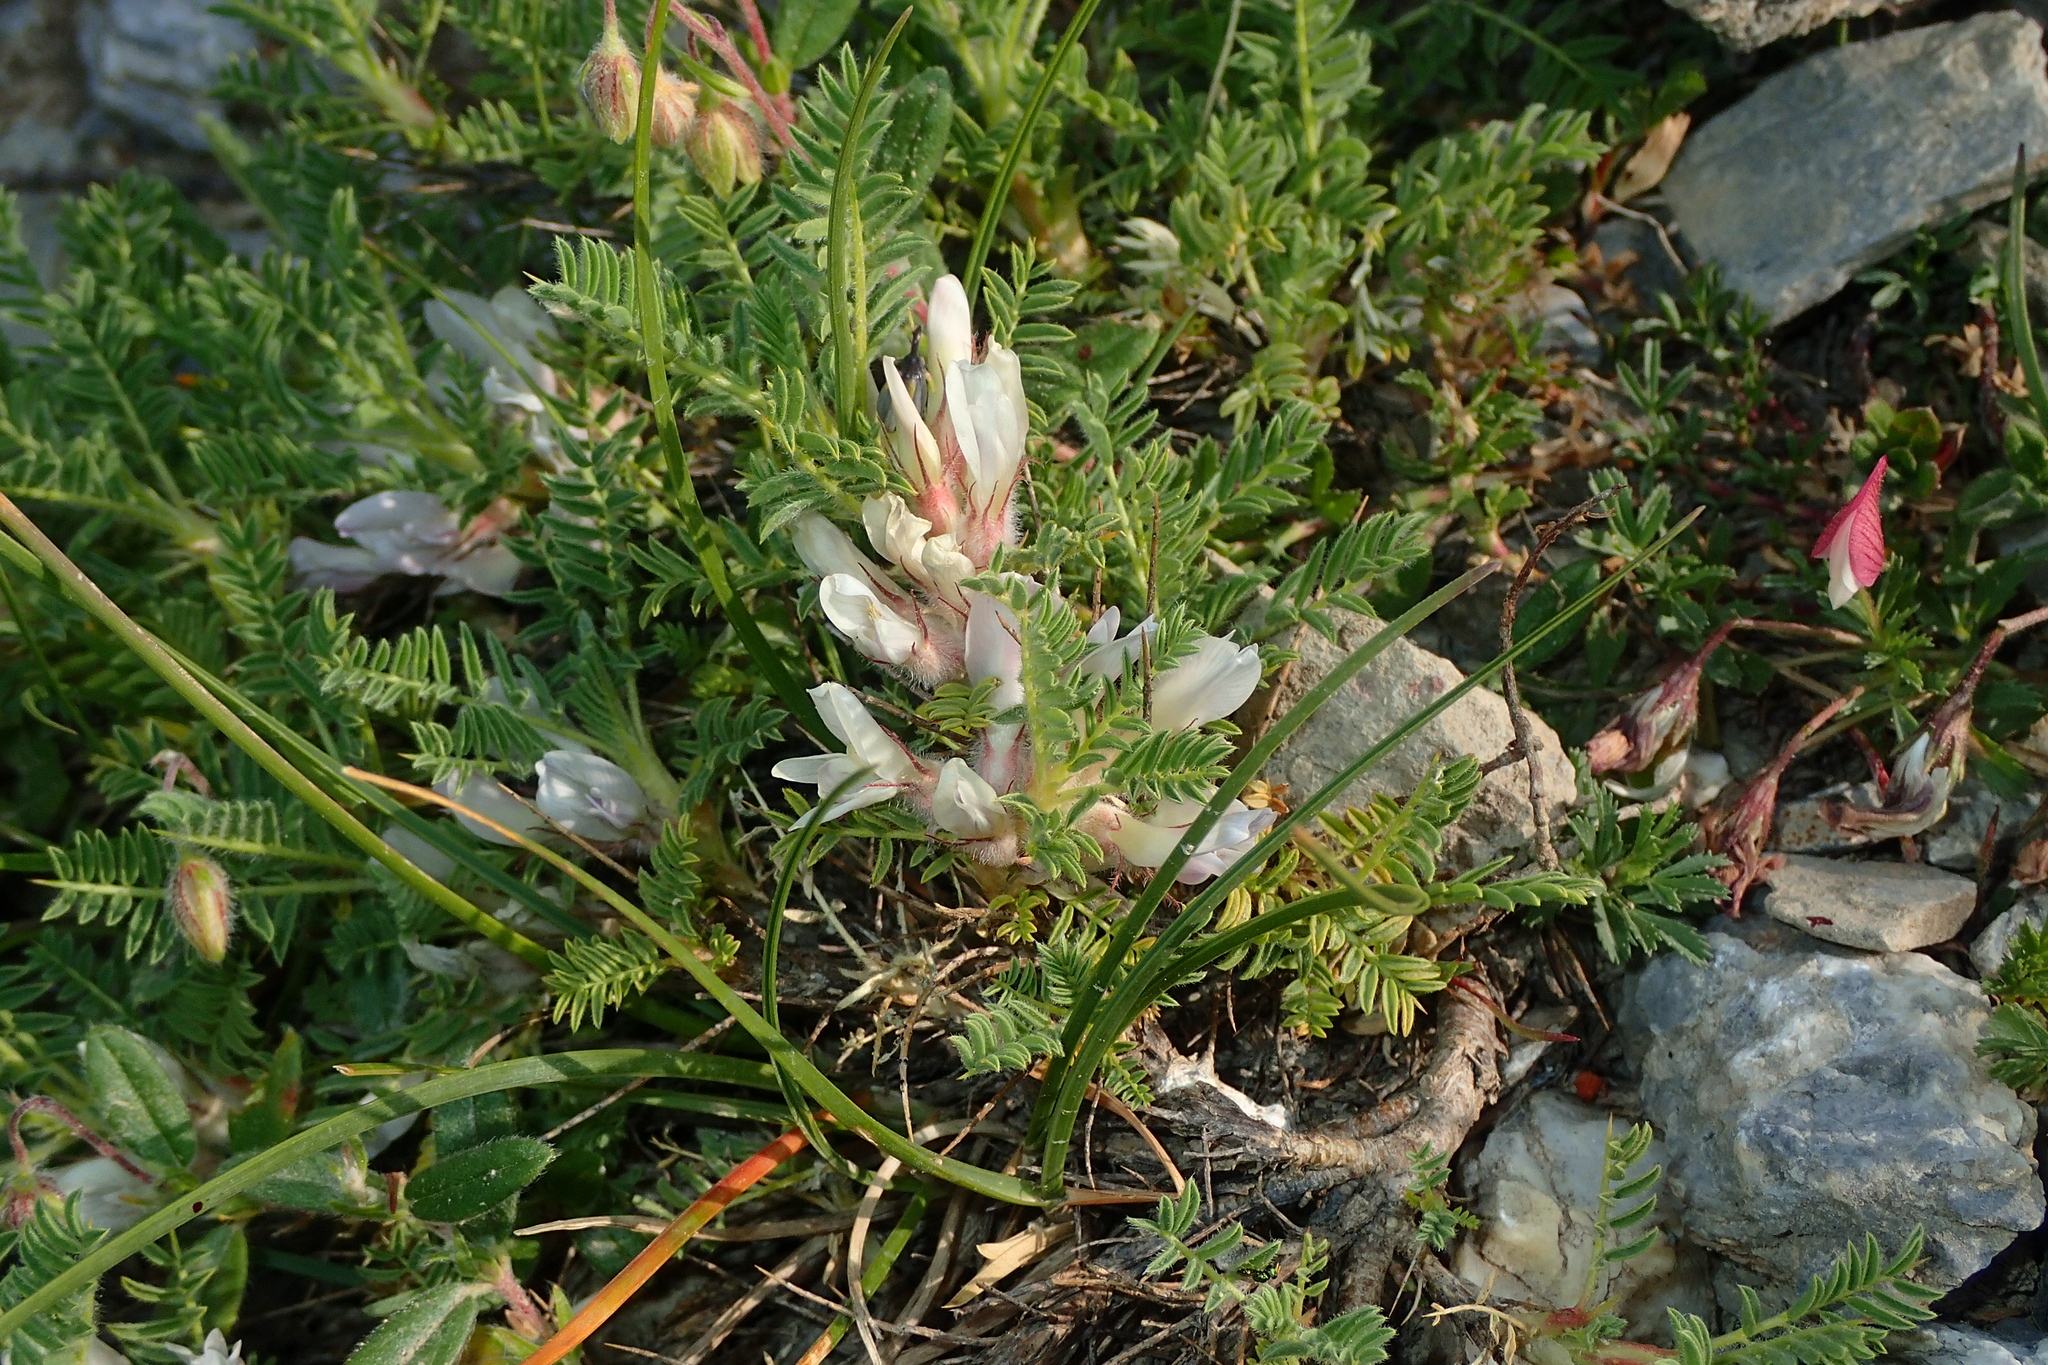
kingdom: Plantae
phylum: Tracheophyta
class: Magnoliopsida
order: Fabales
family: Fabaceae
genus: Astragalus
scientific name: Astragalus sempervirens
